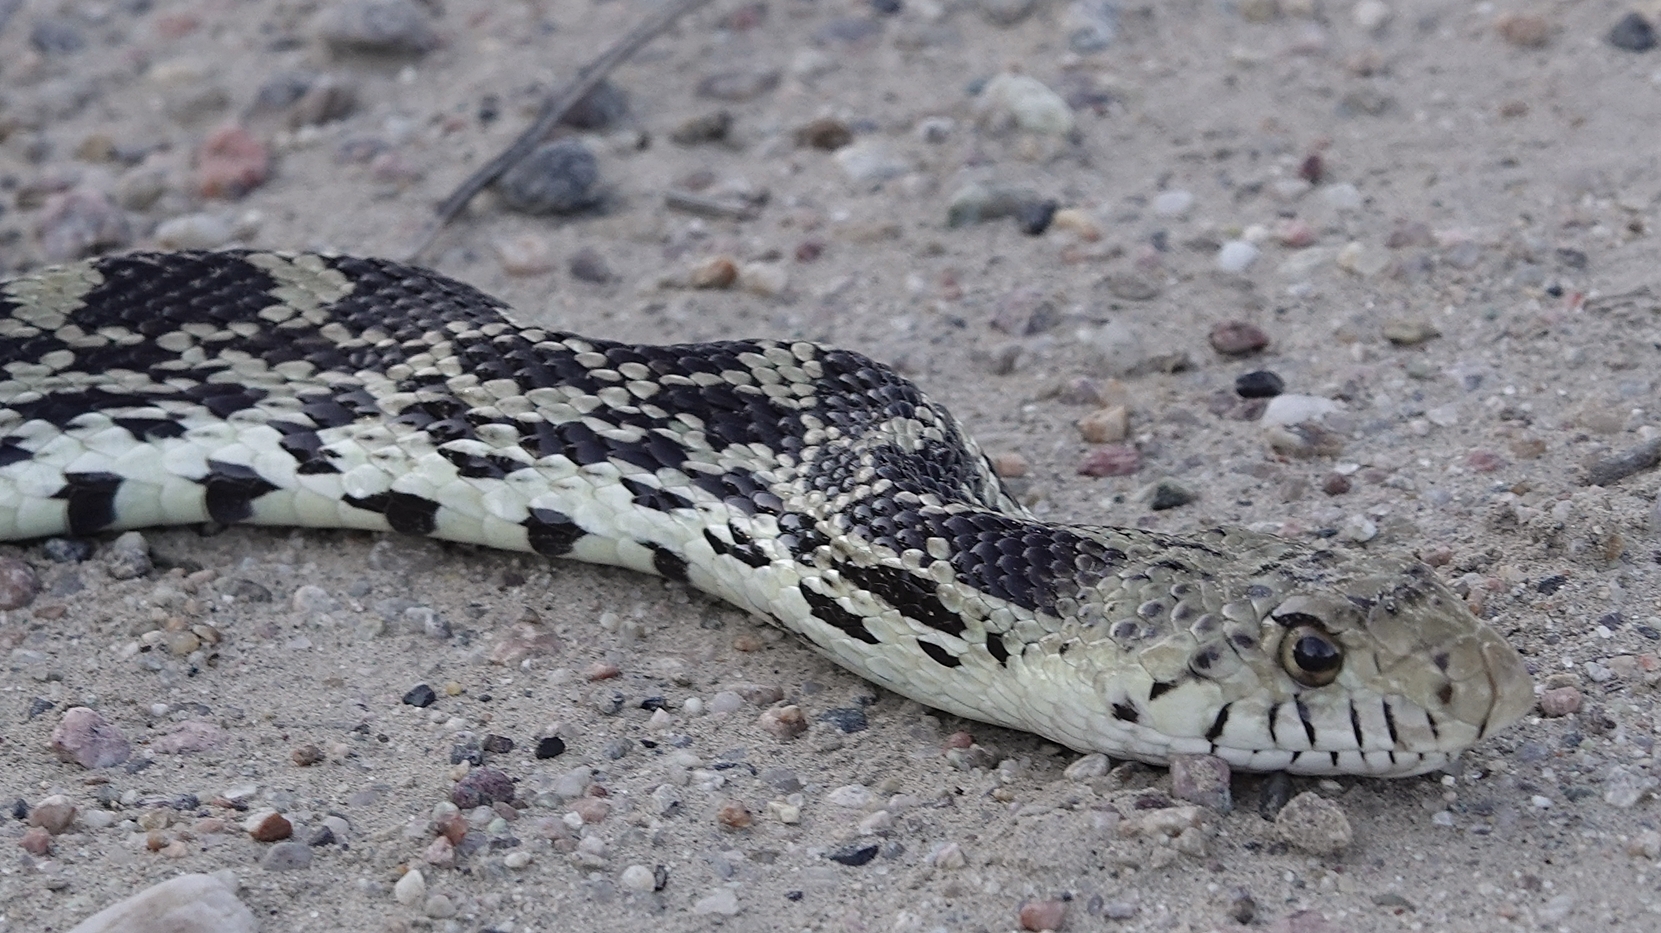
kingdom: Animalia
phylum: Chordata
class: Squamata
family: Colubridae
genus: Pituophis
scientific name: Pituophis catenifer
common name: Gopher snake
